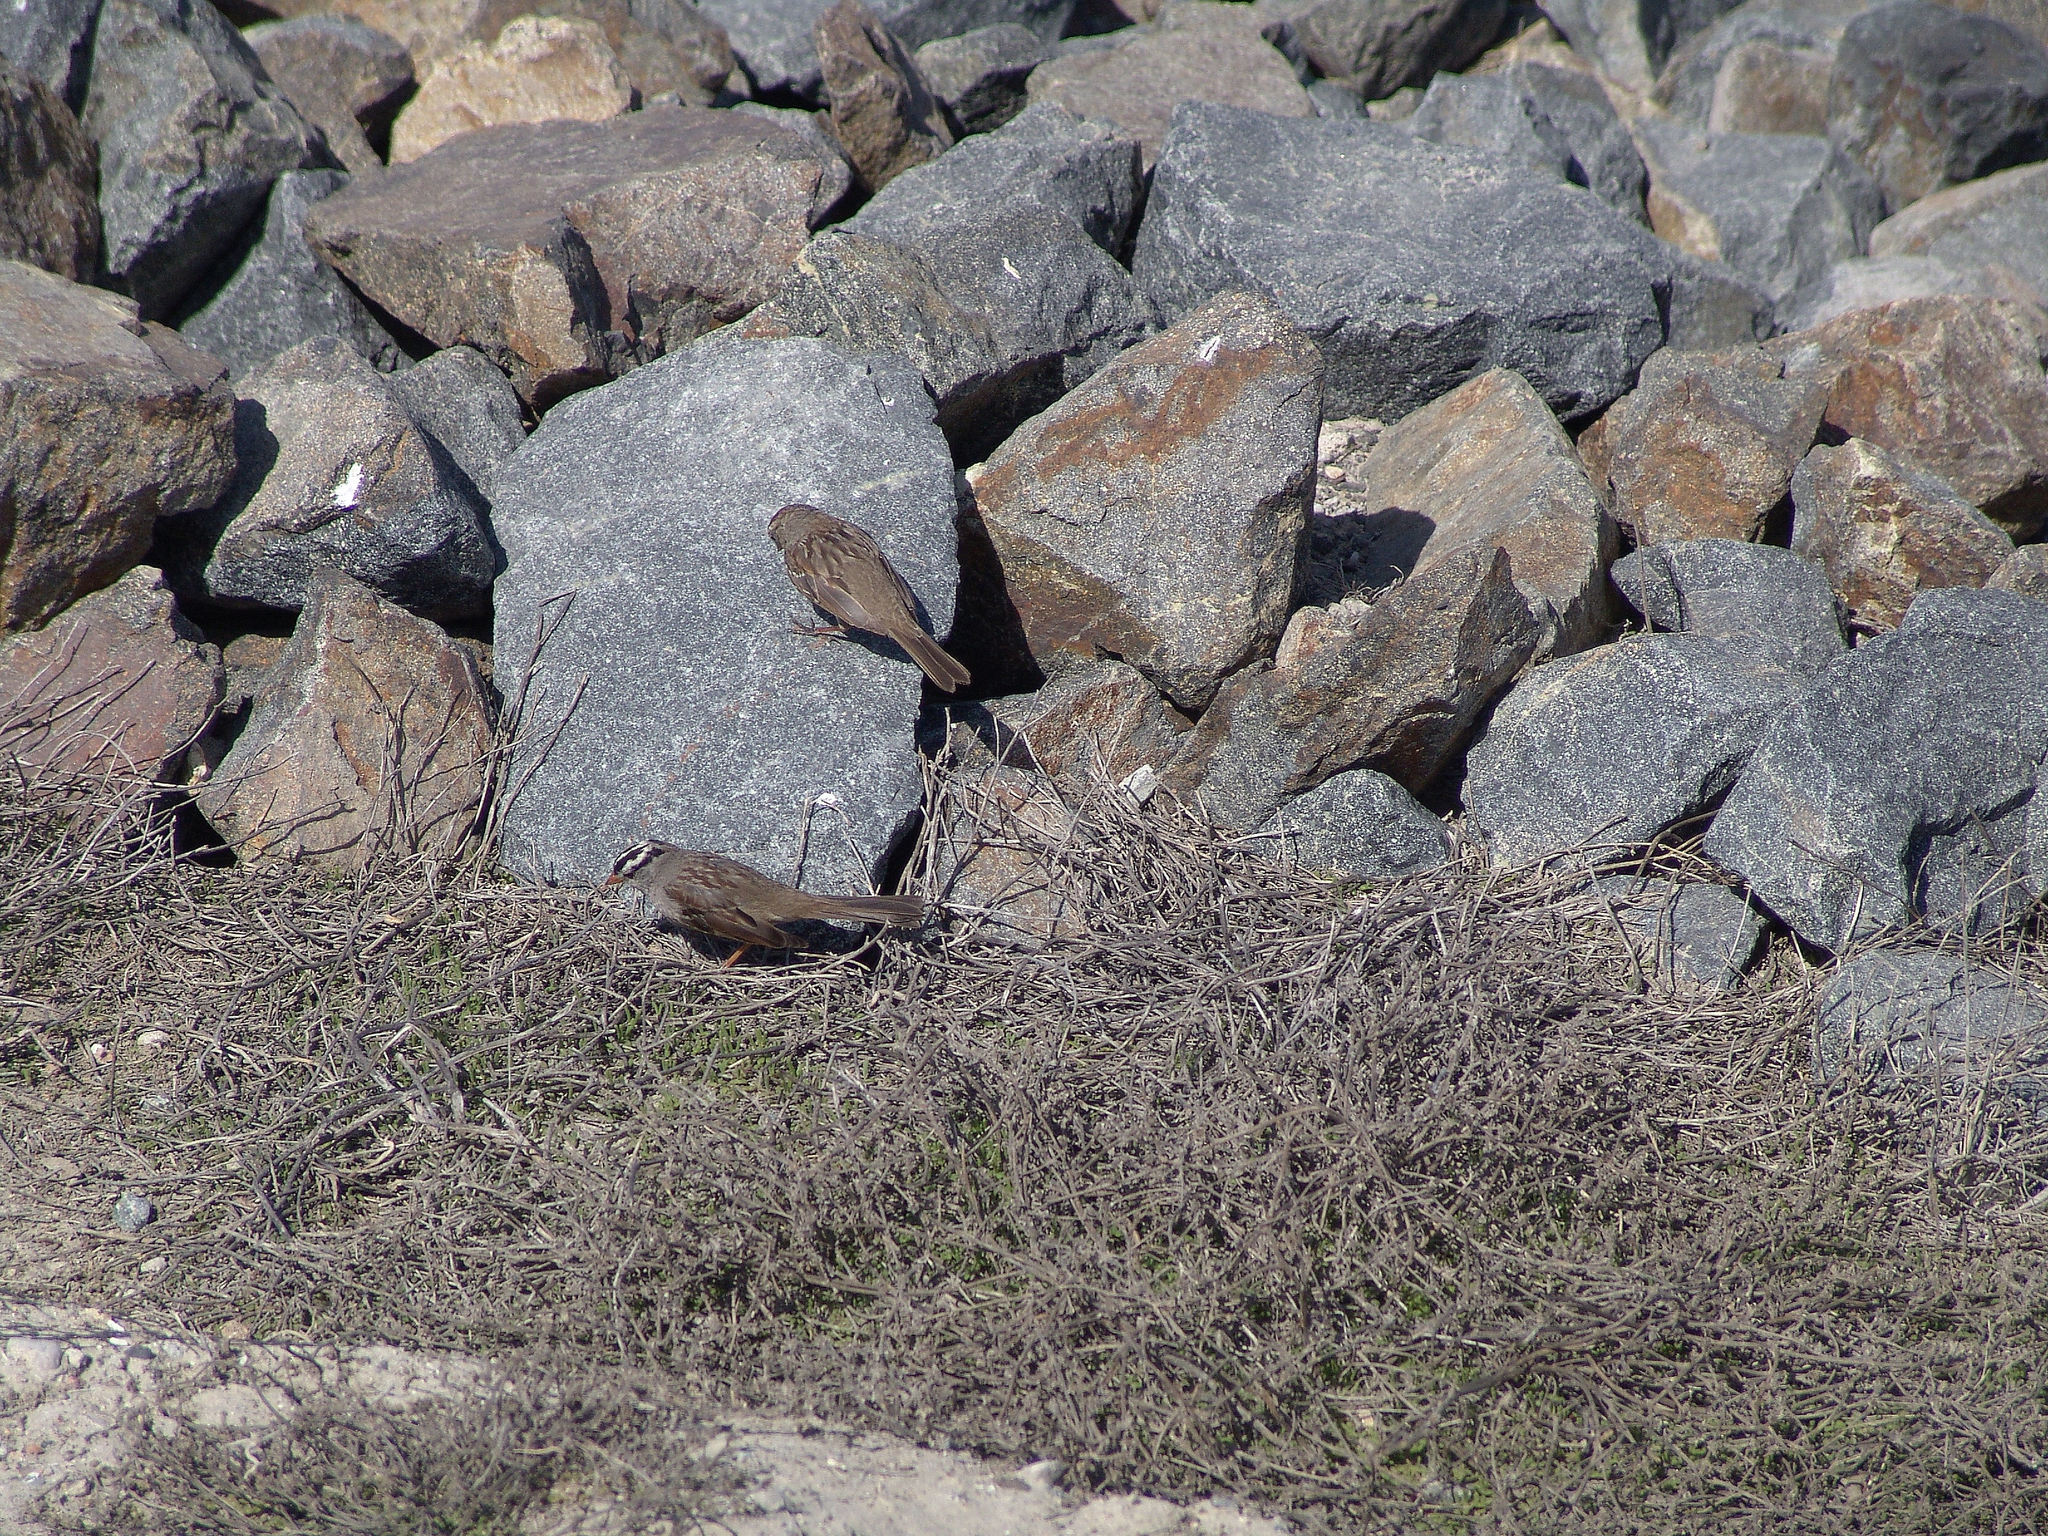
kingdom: Animalia
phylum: Chordata
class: Aves
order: Passeriformes
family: Passerellidae
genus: Zonotrichia
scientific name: Zonotrichia leucophrys
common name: White-crowned sparrow
